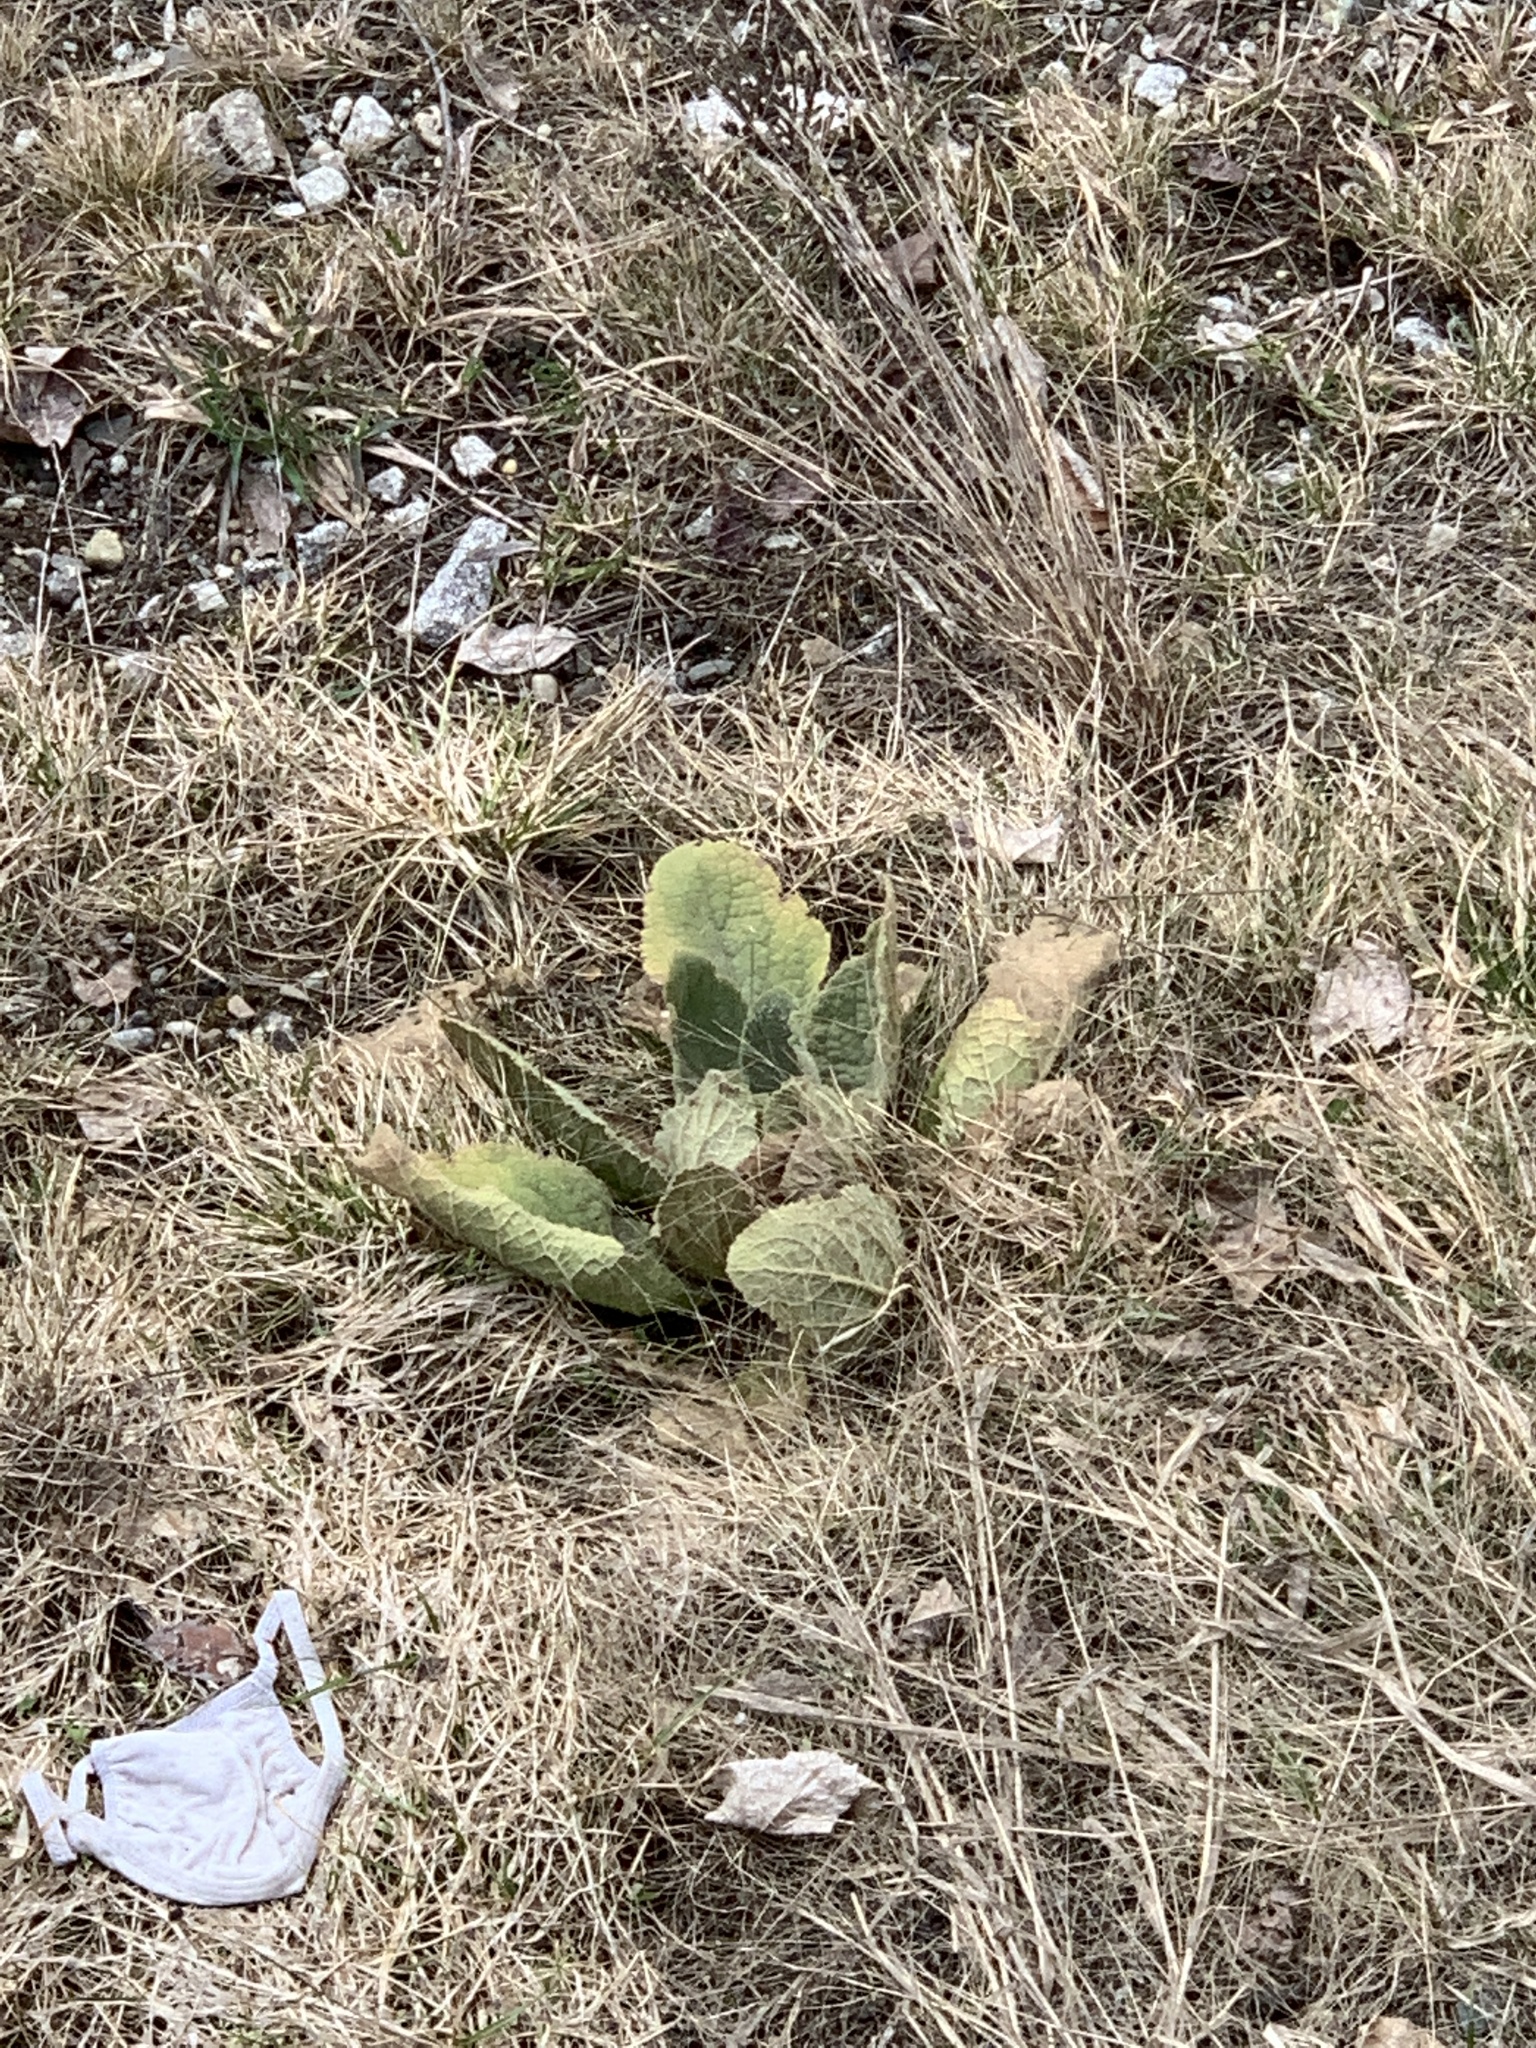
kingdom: Plantae
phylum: Tracheophyta
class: Magnoliopsida
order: Lamiales
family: Scrophulariaceae
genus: Verbascum
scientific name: Verbascum thapsus
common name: Common mullein
